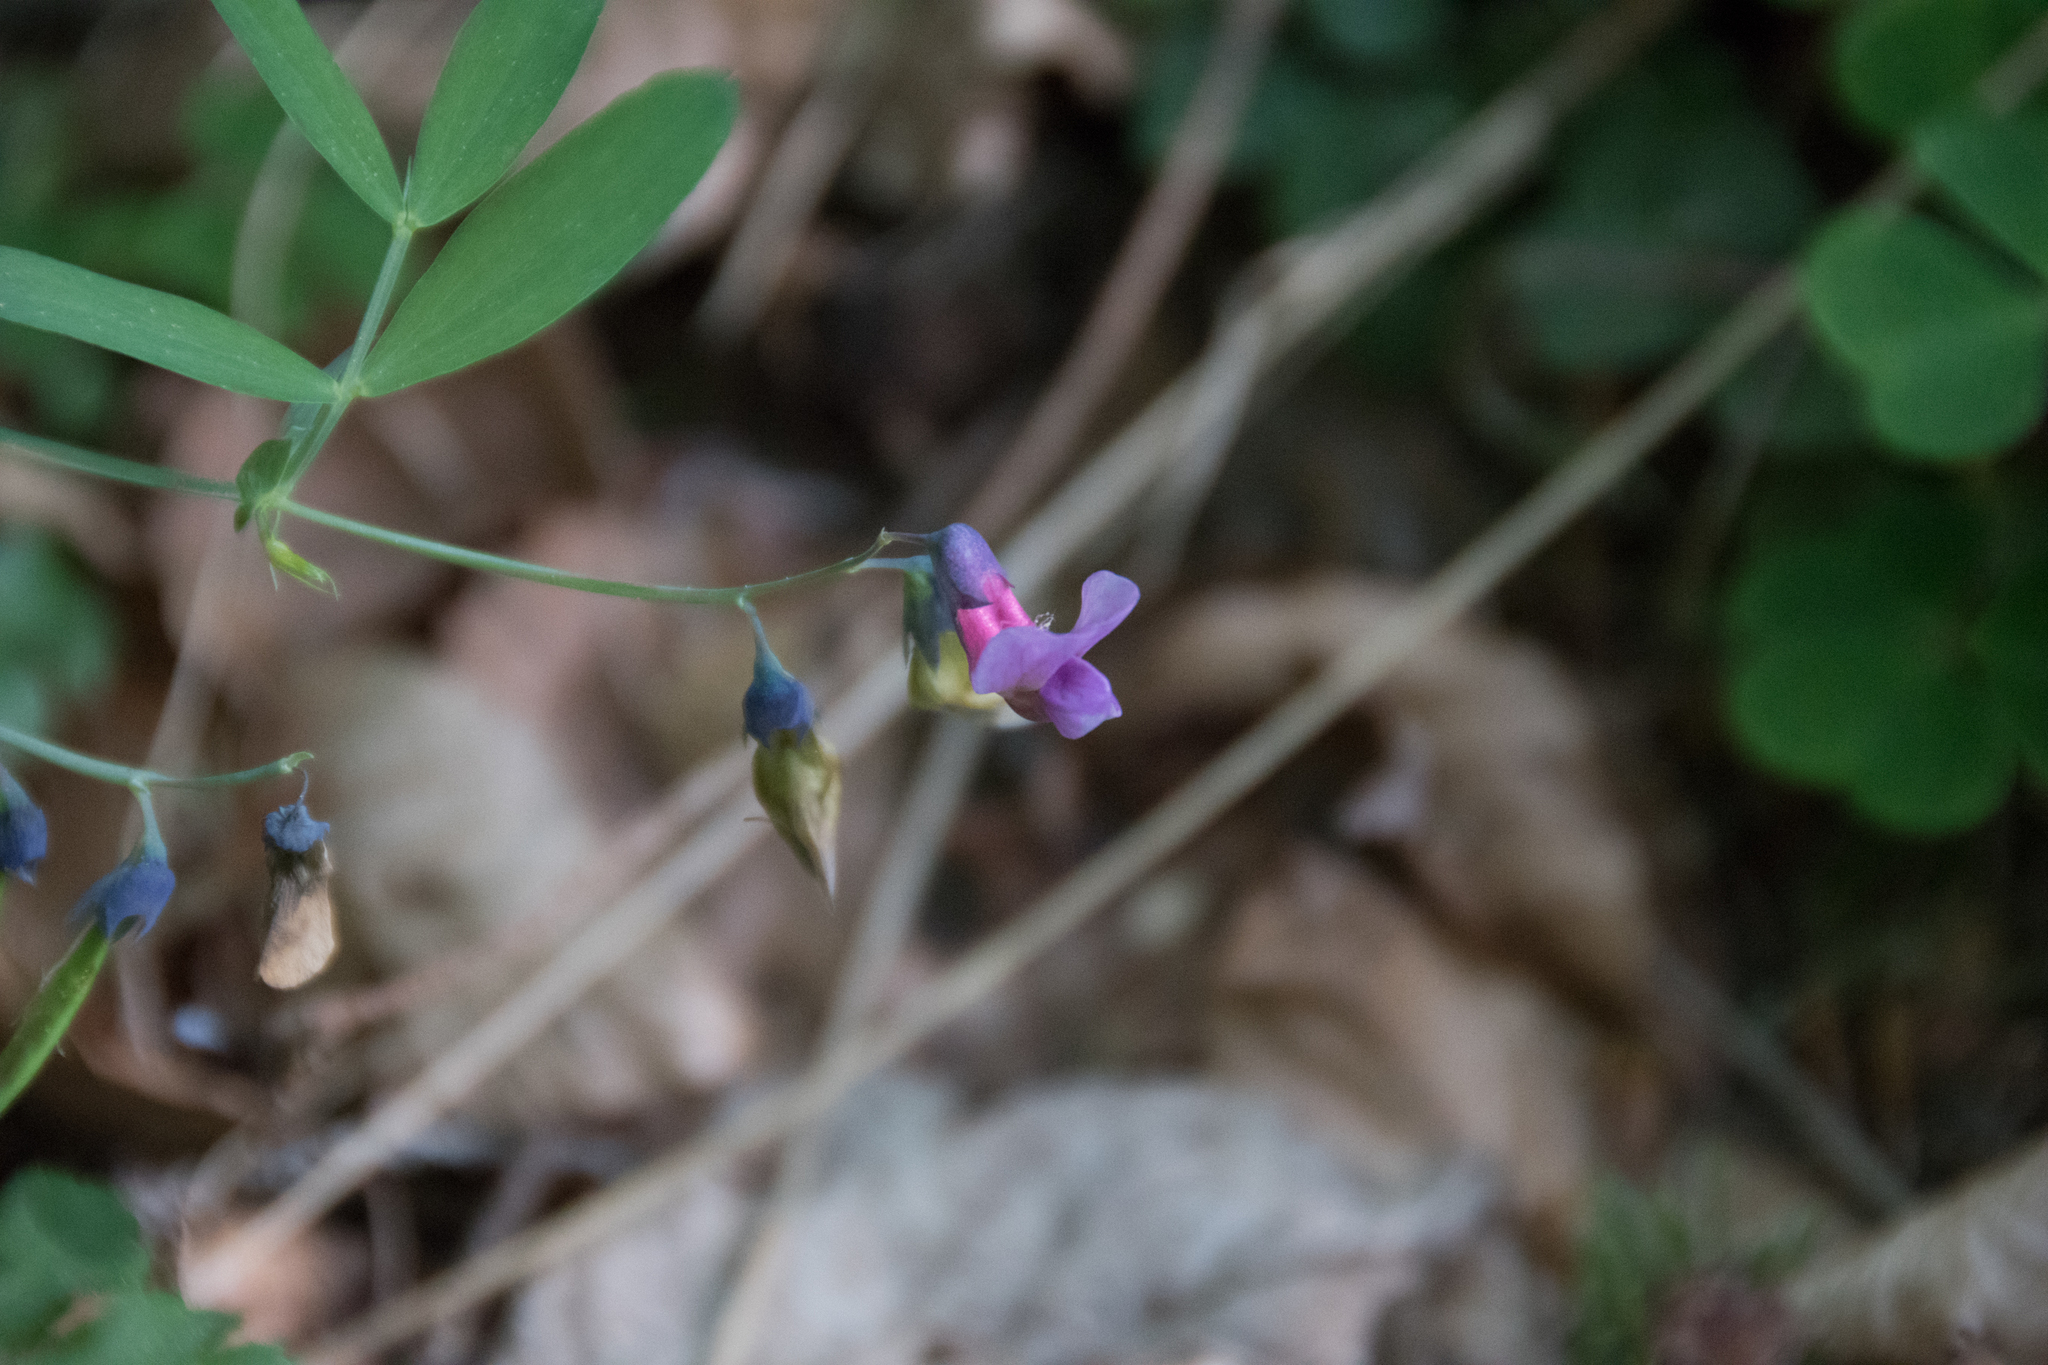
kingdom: Plantae
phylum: Tracheophyta
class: Magnoliopsida
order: Fabales
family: Fabaceae
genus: Lathyrus
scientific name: Lathyrus linifolius
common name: Bitter-vetch
